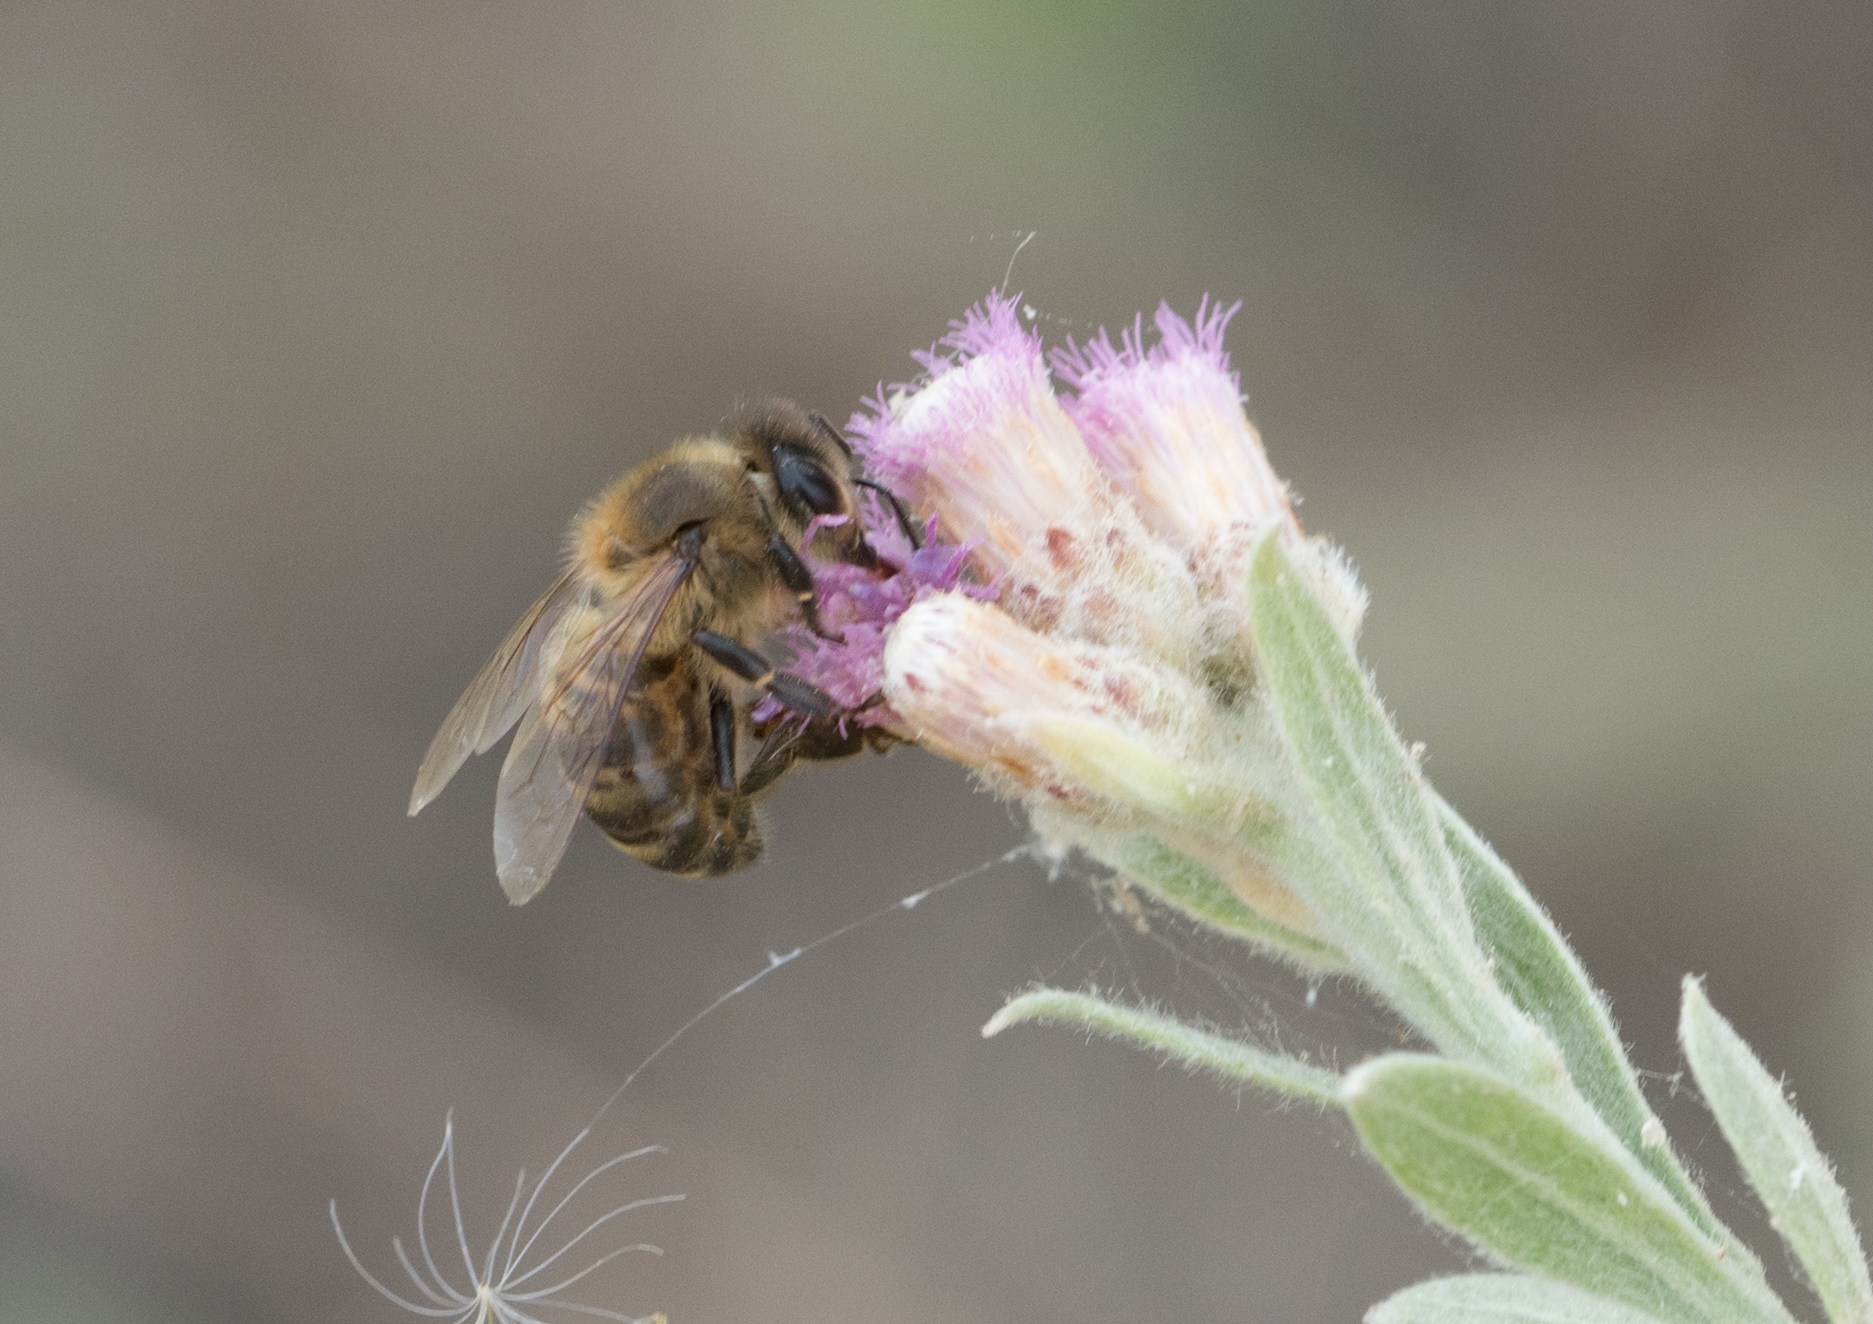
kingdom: Animalia
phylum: Arthropoda
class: Insecta
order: Hymenoptera
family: Apidae
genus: Apis
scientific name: Apis mellifera
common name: Honey bee
